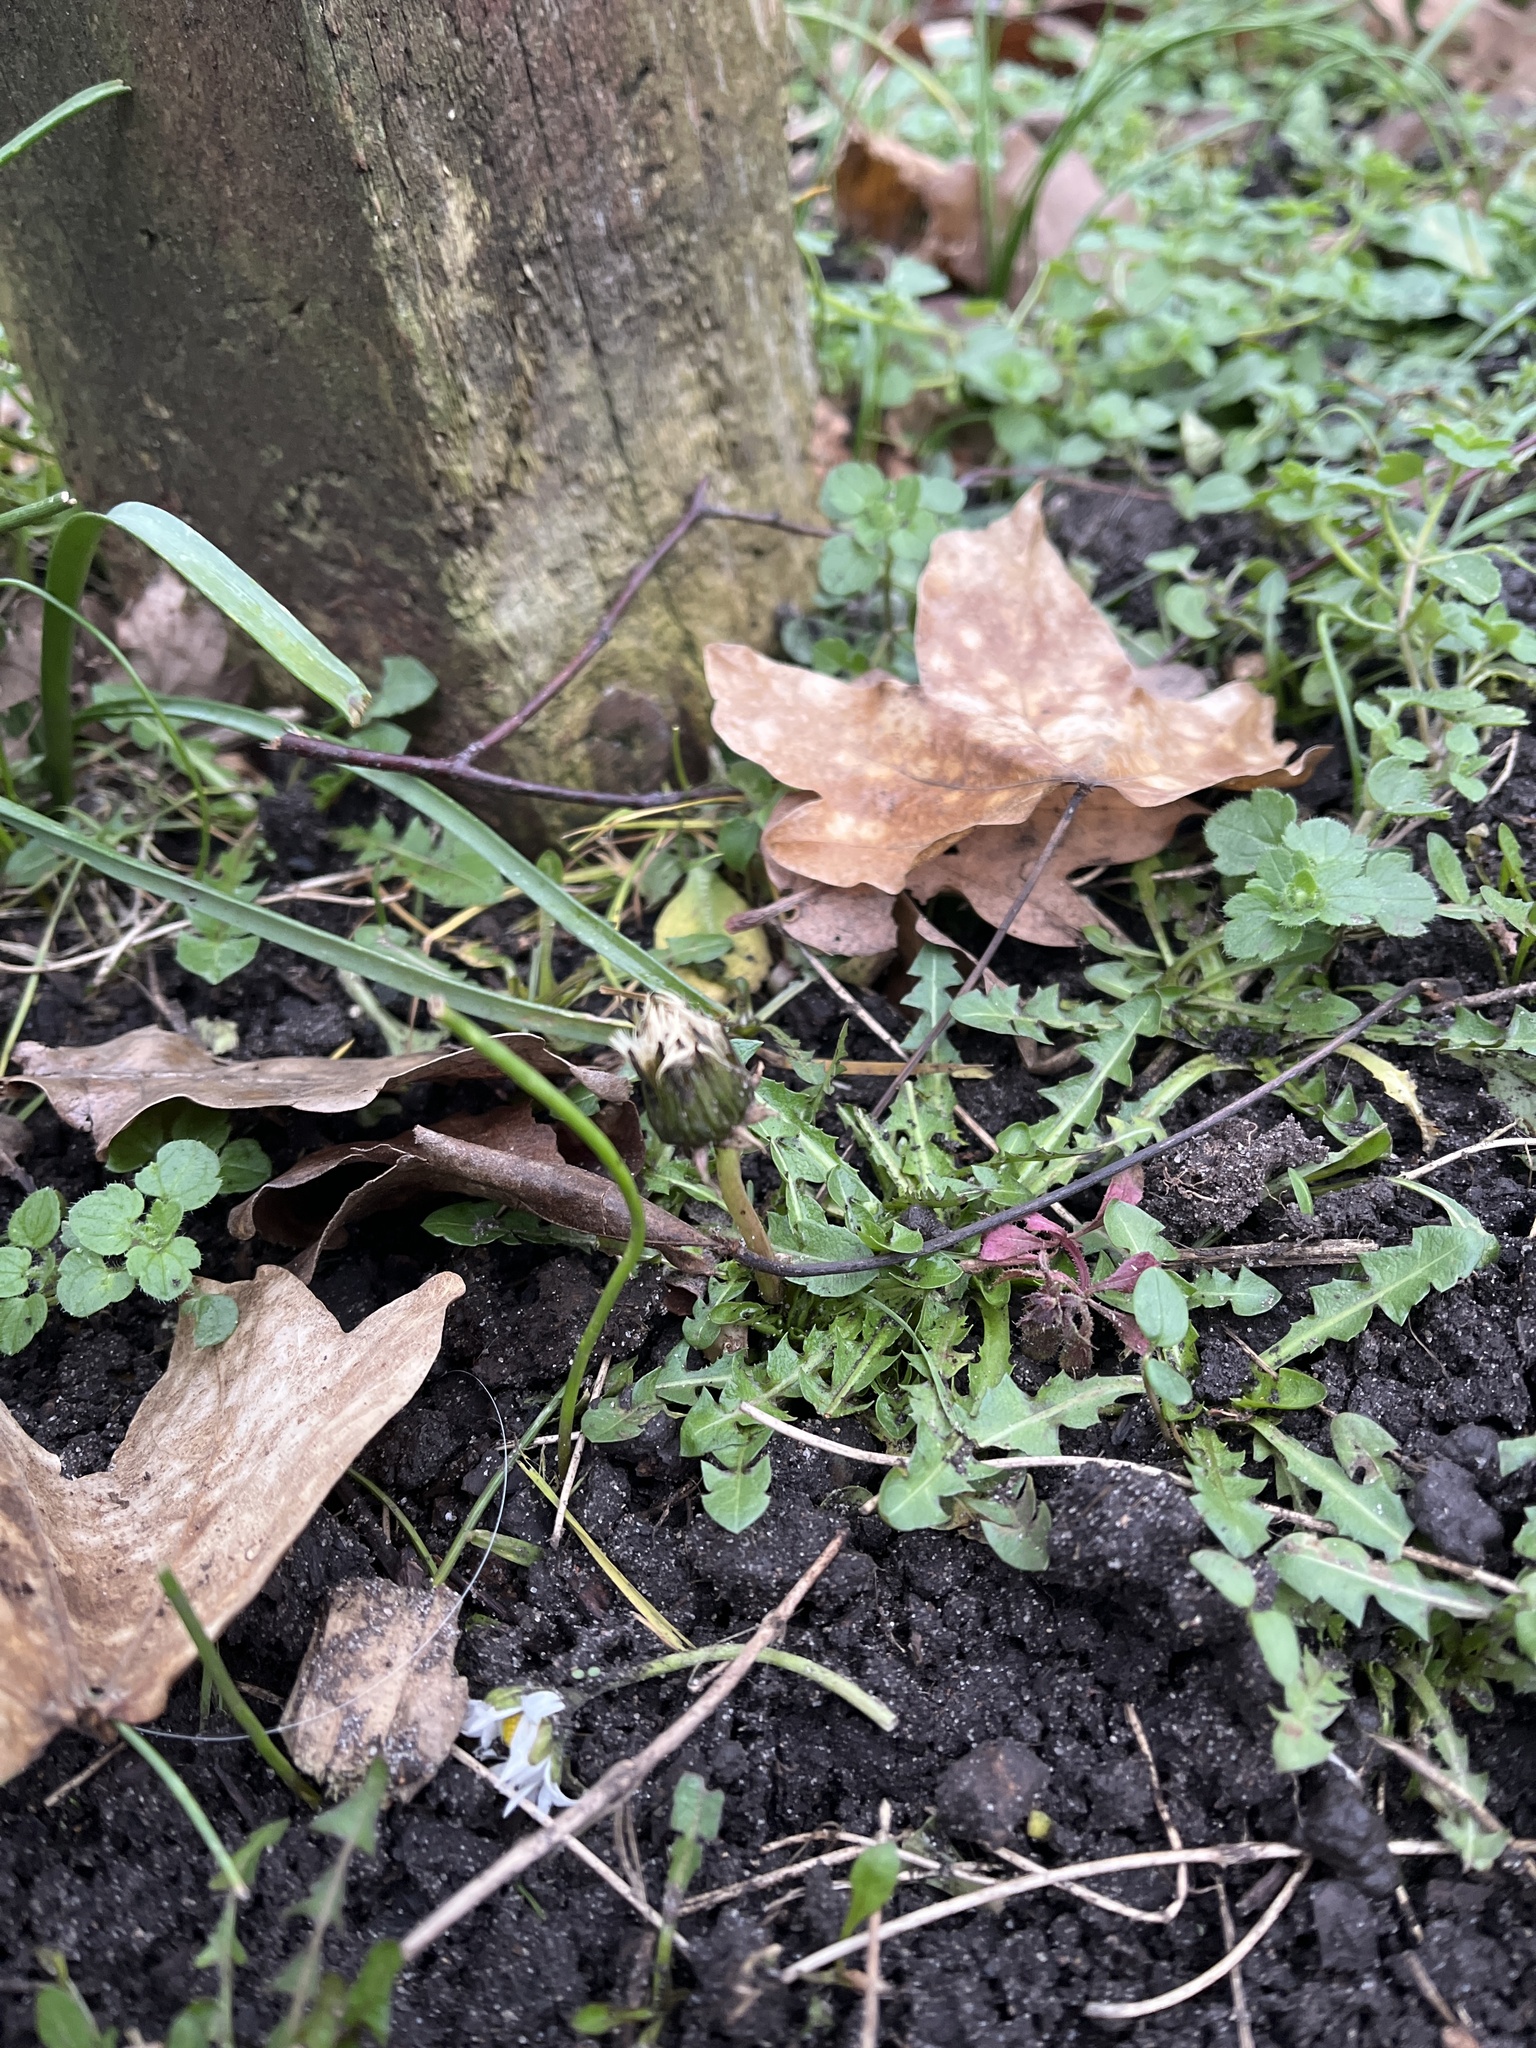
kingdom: Plantae
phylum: Tracheophyta
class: Magnoliopsida
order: Asterales
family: Asteraceae
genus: Taraxacum
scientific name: Taraxacum officinale
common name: Common dandelion
